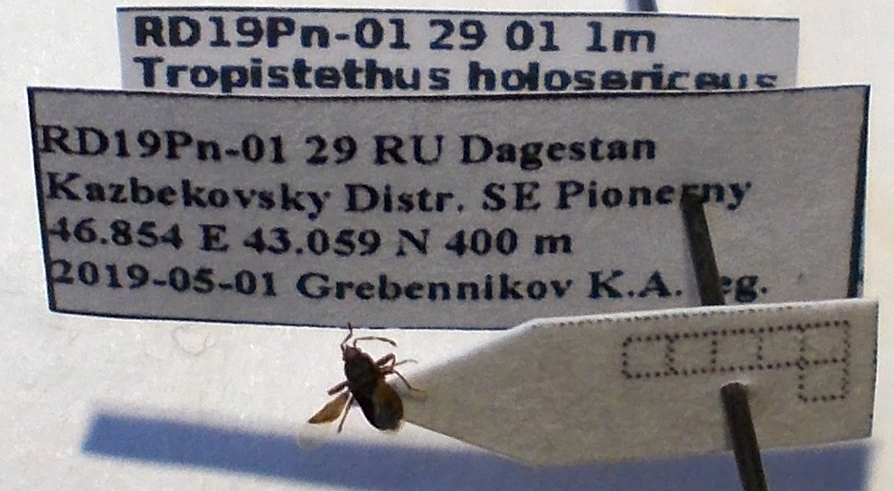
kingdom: Animalia
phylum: Arthropoda
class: Insecta
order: Hemiptera
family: Rhyparochromidae
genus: Tropistethus
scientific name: Tropistethus holosericus
